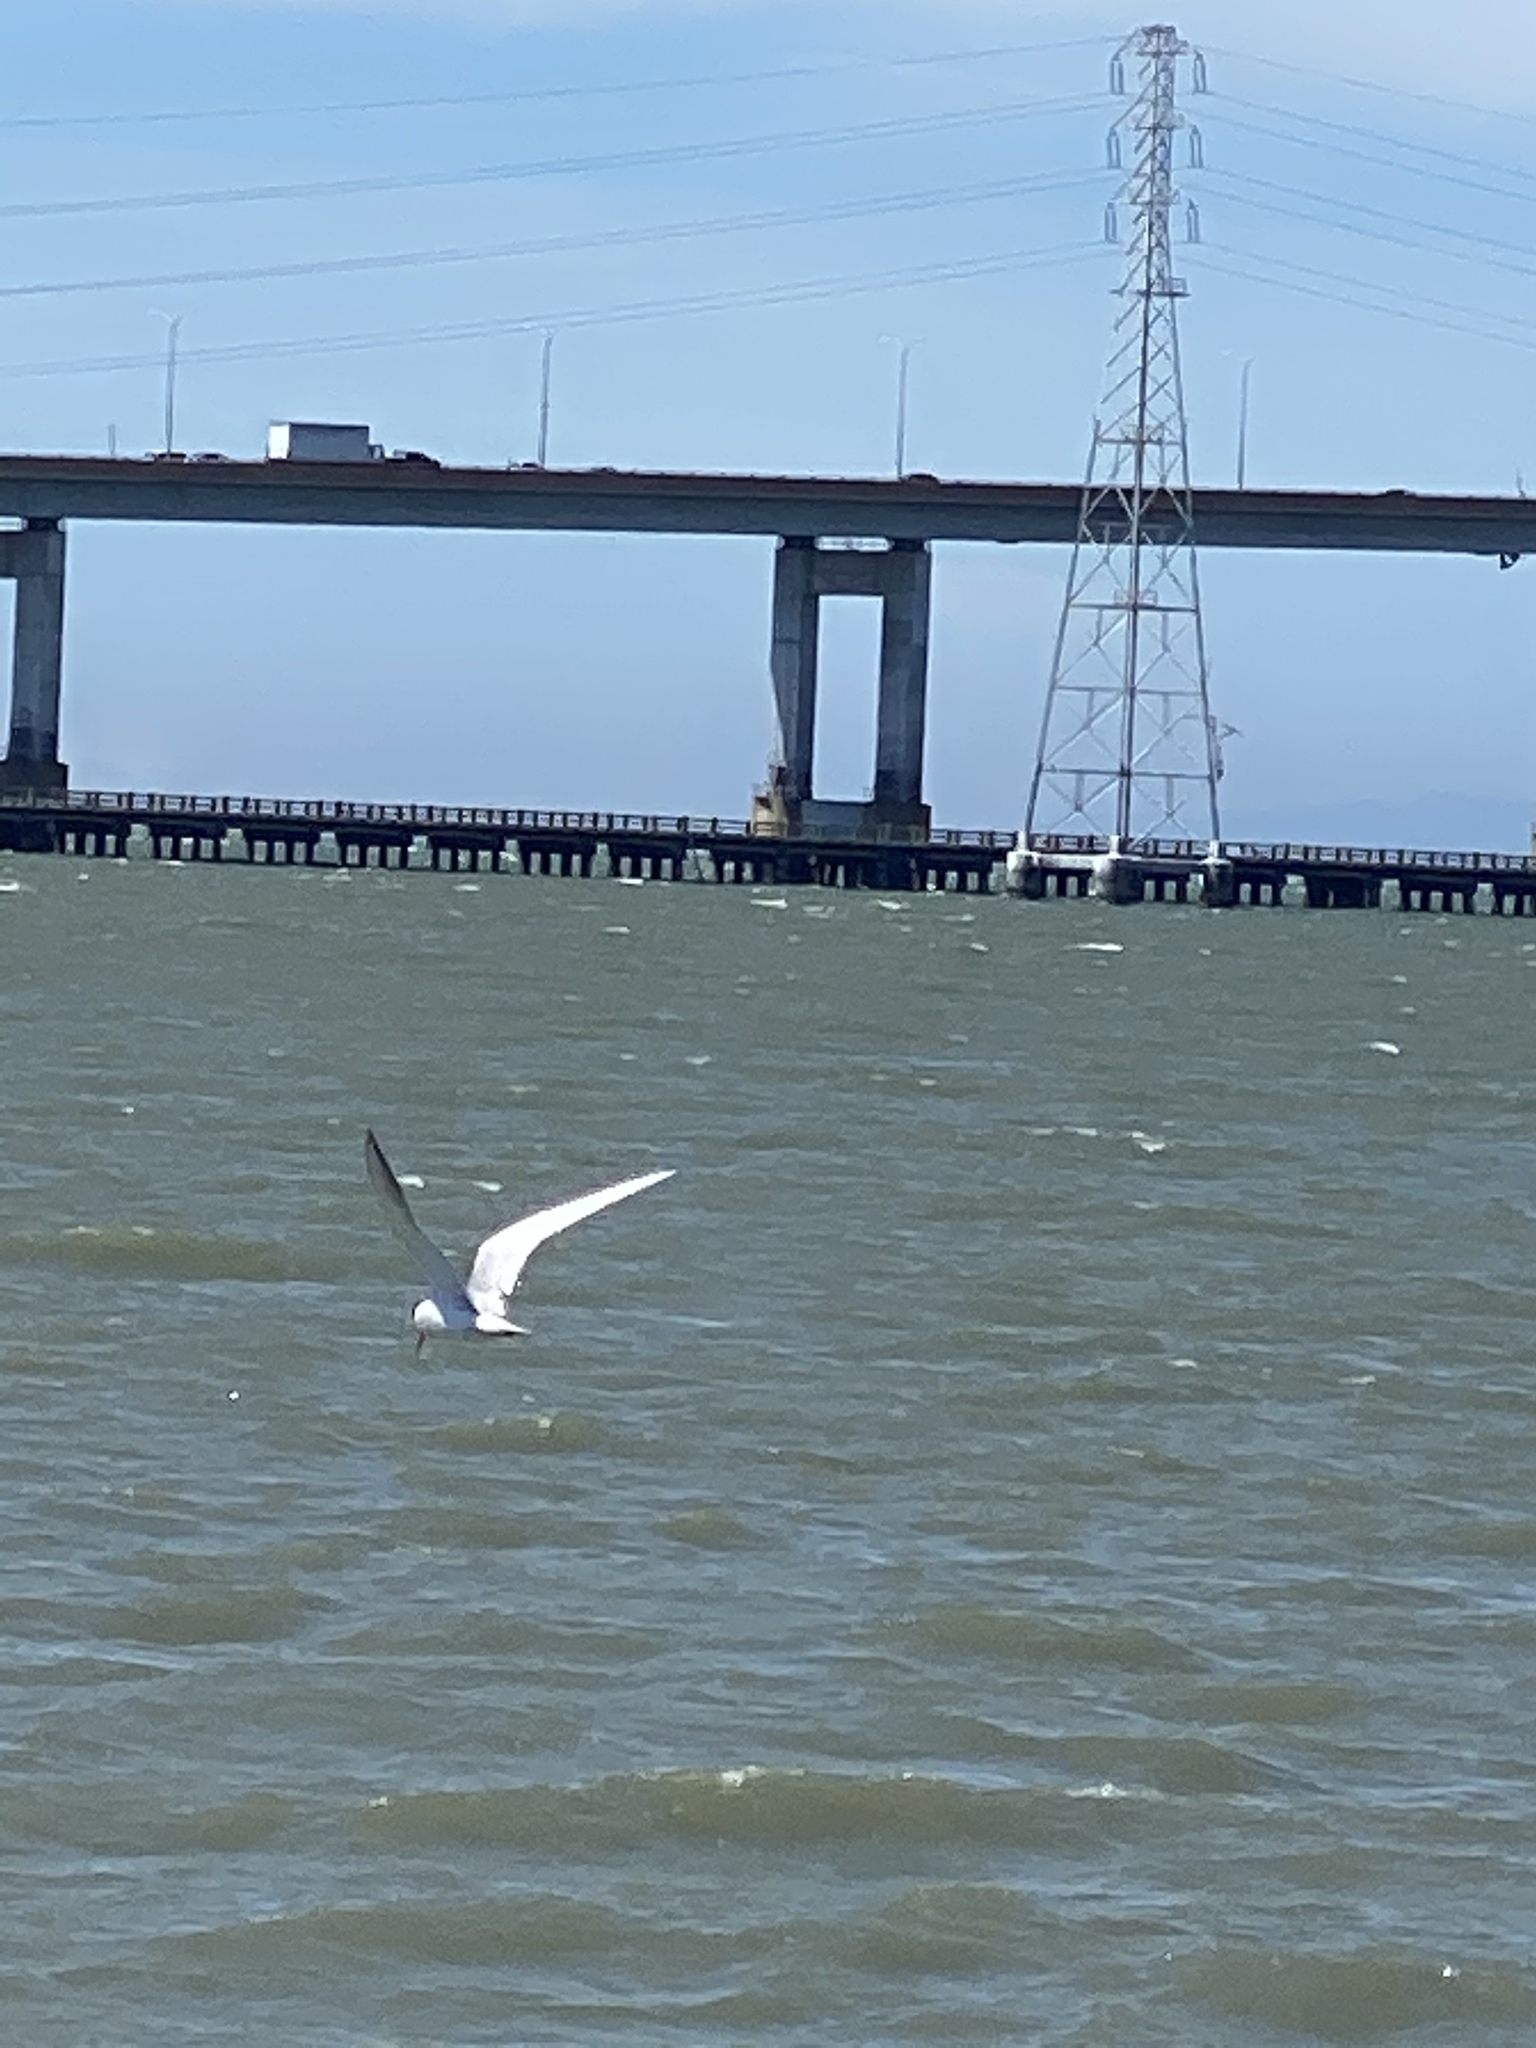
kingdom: Animalia
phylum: Chordata
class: Aves
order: Charadriiformes
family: Laridae
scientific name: Laridae
